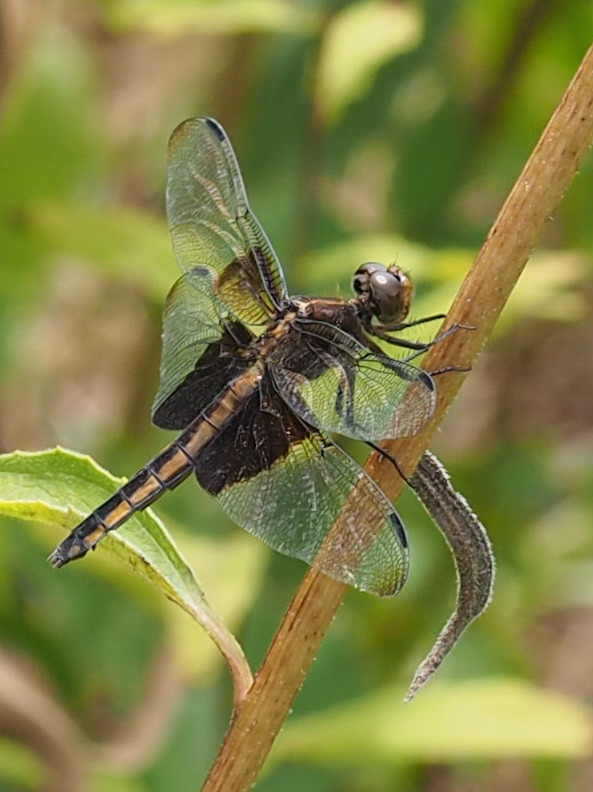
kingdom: Animalia
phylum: Arthropoda
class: Insecta
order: Odonata
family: Libellulidae
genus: Libellula
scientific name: Libellula luctuosa
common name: Widow skimmer
